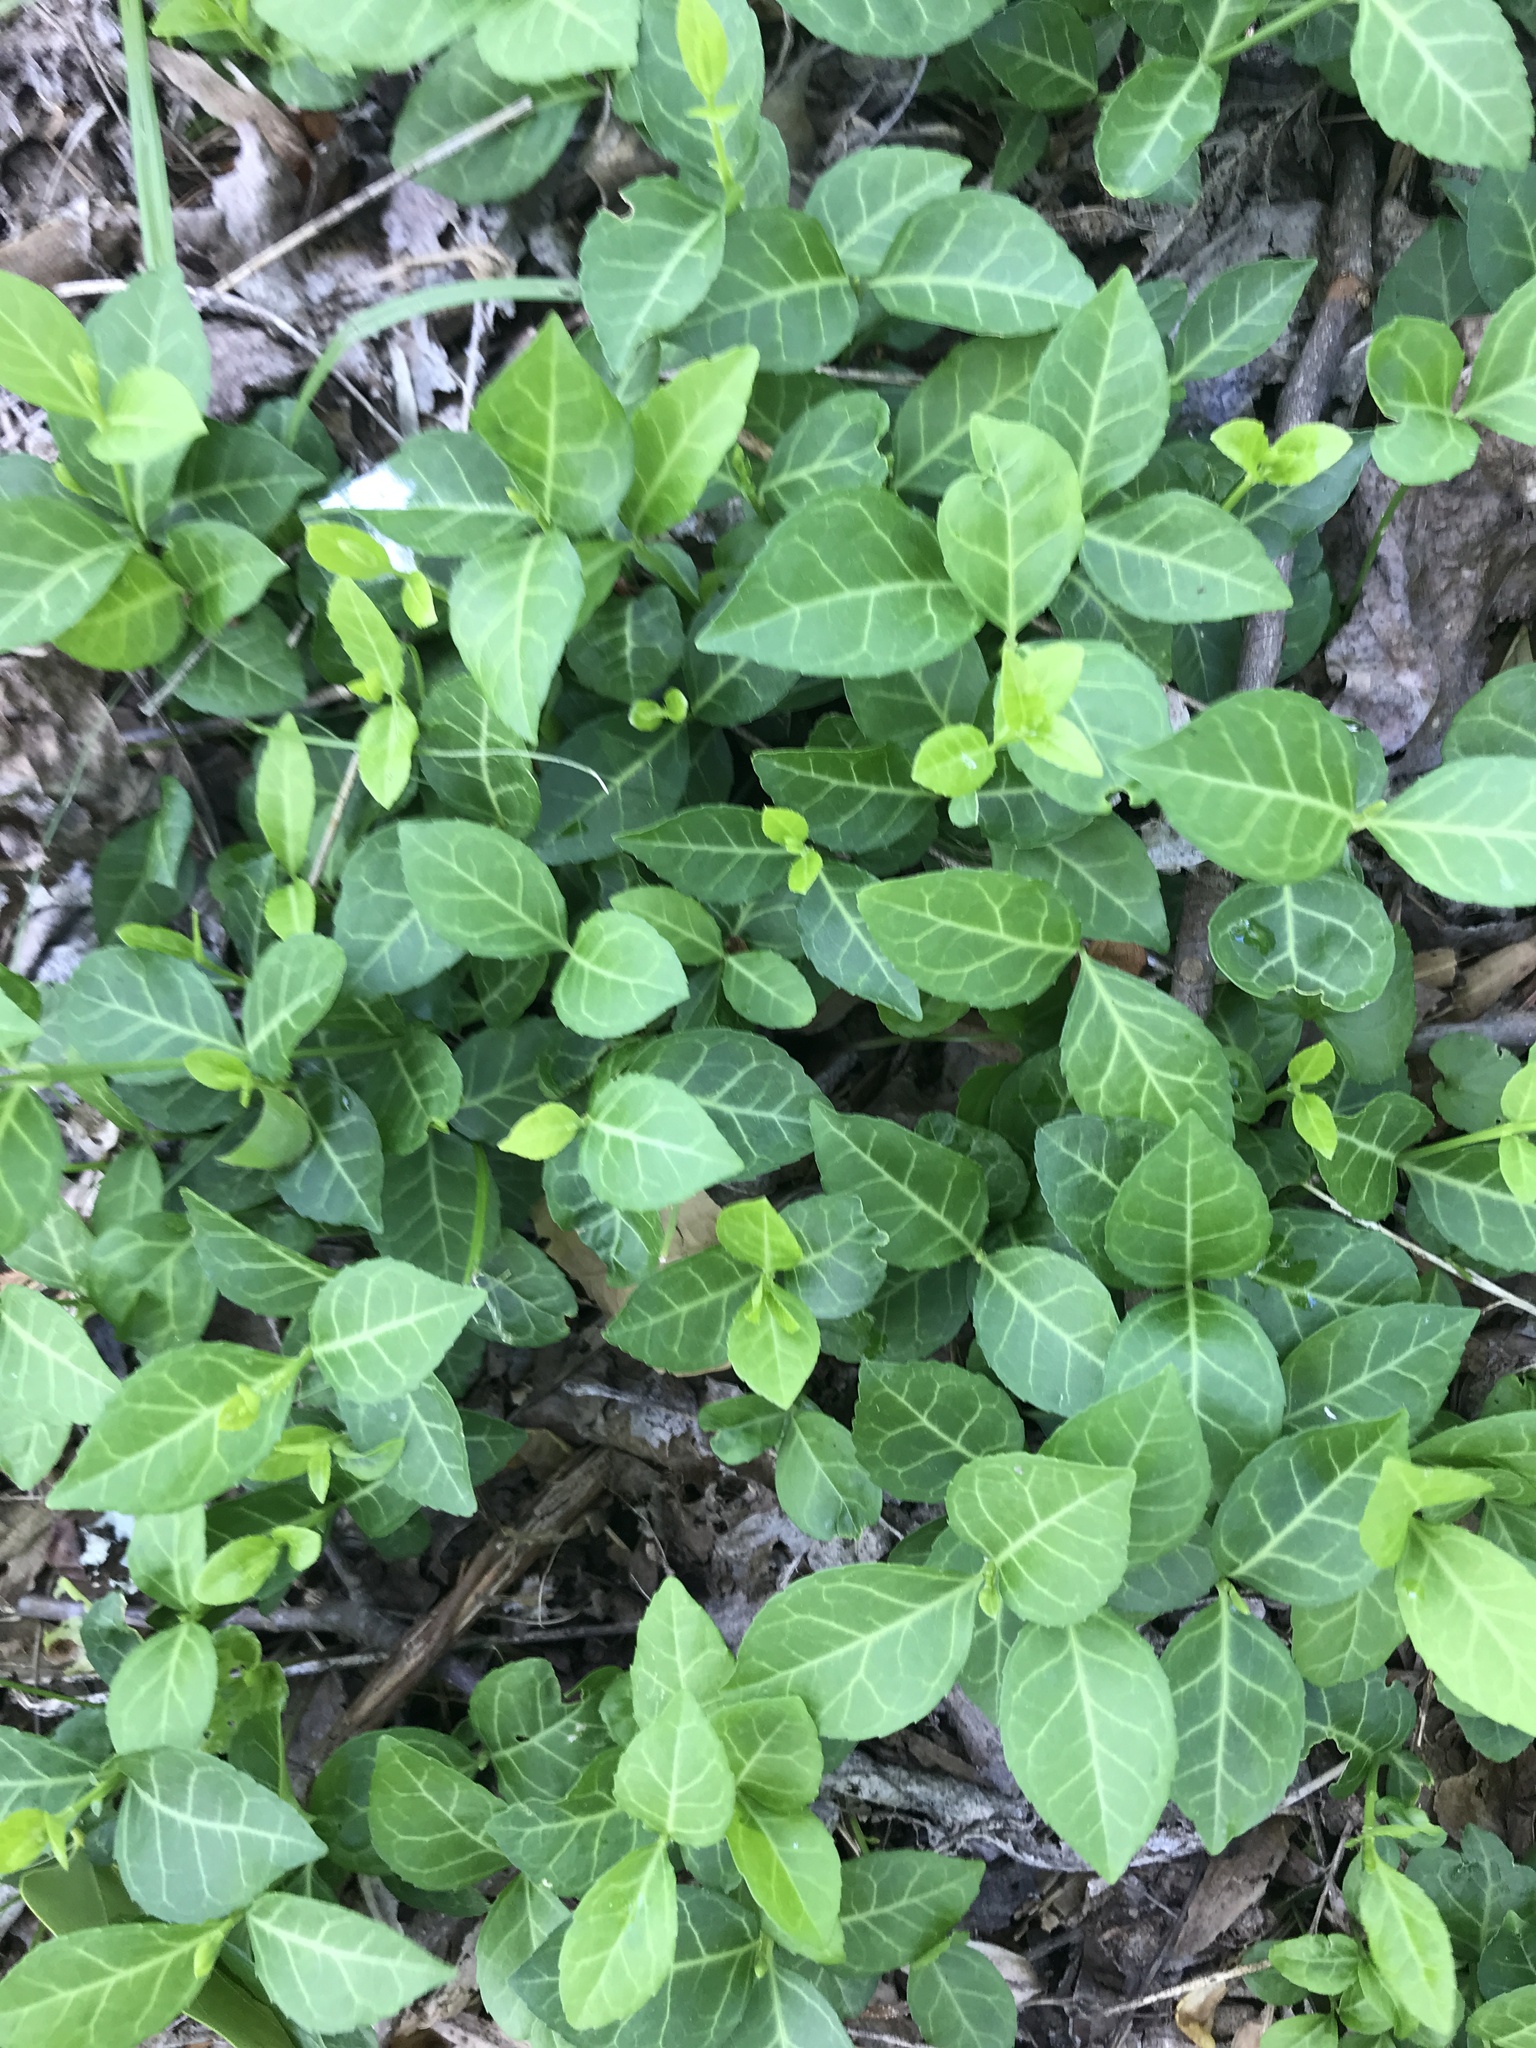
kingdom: Plantae
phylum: Tracheophyta
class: Magnoliopsida
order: Celastrales
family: Celastraceae
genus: Euonymus
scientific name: Euonymus fortunei
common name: Climbing euonymus
